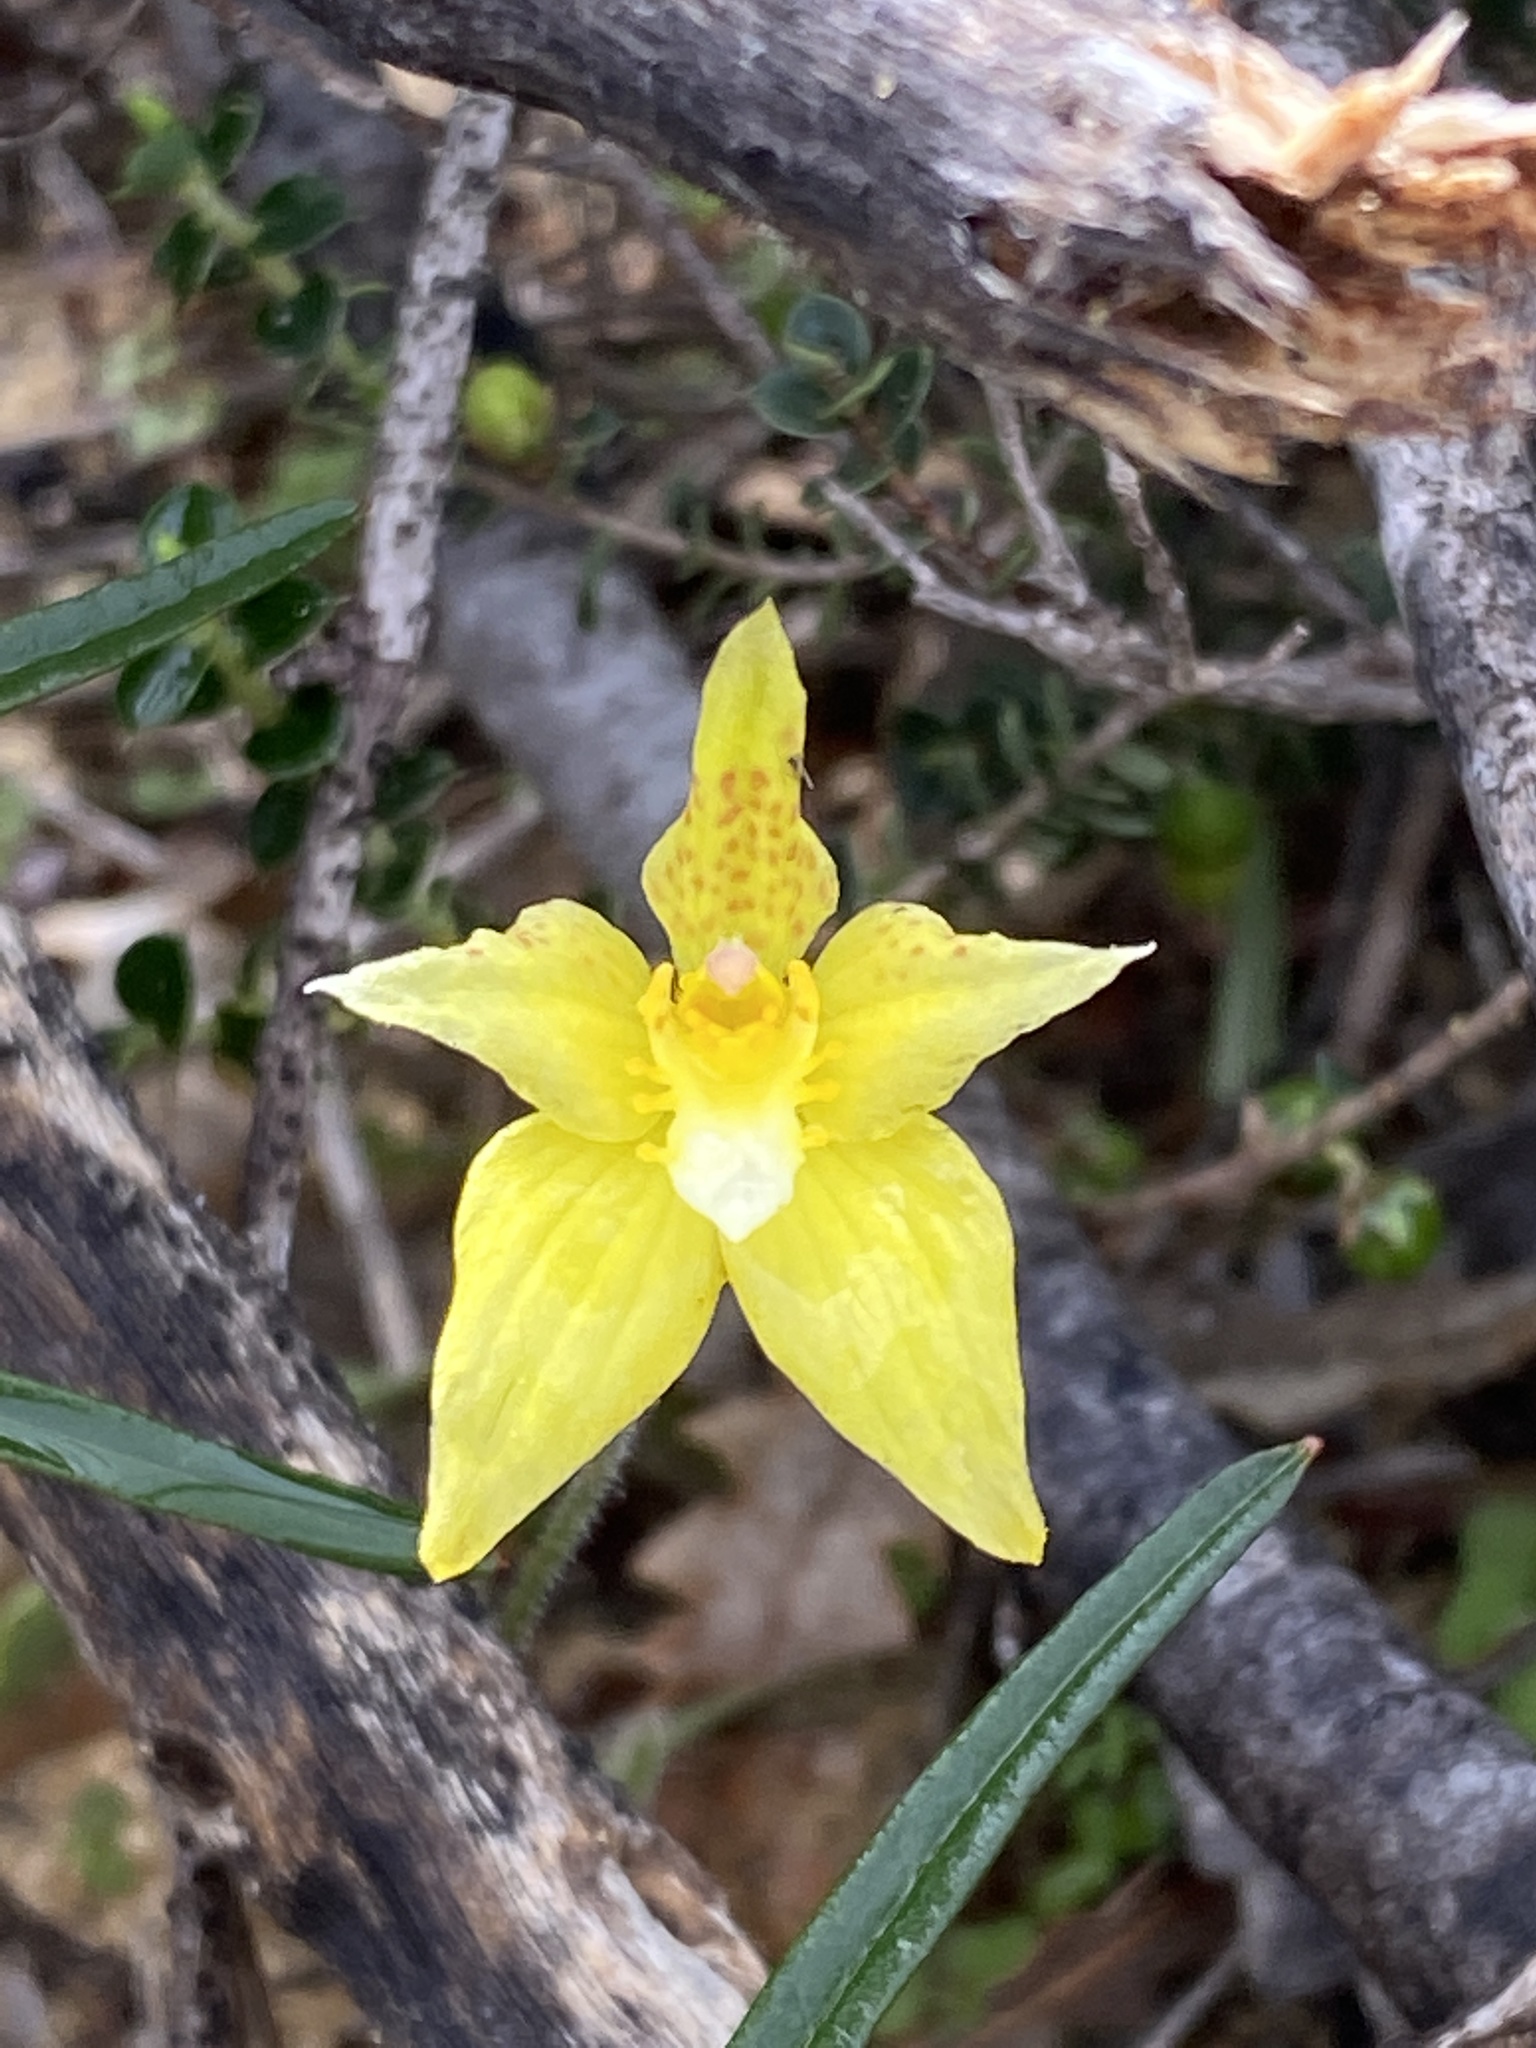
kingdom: Plantae
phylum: Tracheophyta
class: Liliopsida
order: Asparagales
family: Orchidaceae
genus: Caladenia
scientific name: Caladenia flava
